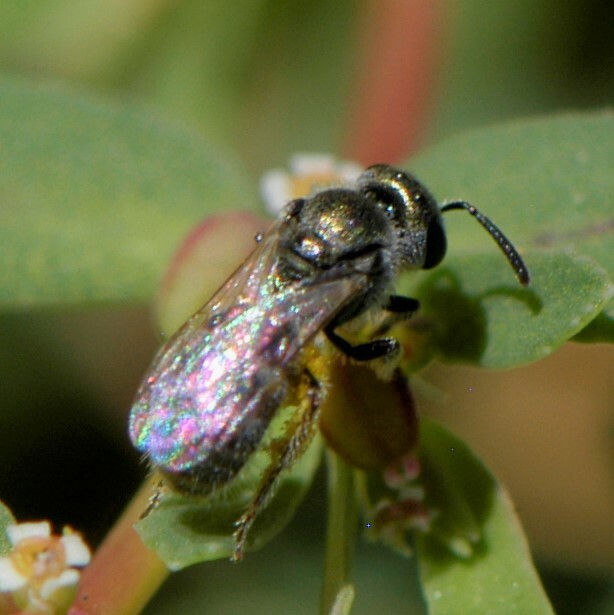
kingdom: Animalia
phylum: Arthropoda
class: Insecta
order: Hymenoptera
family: Halictidae
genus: Dialictus
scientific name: Dialictus
